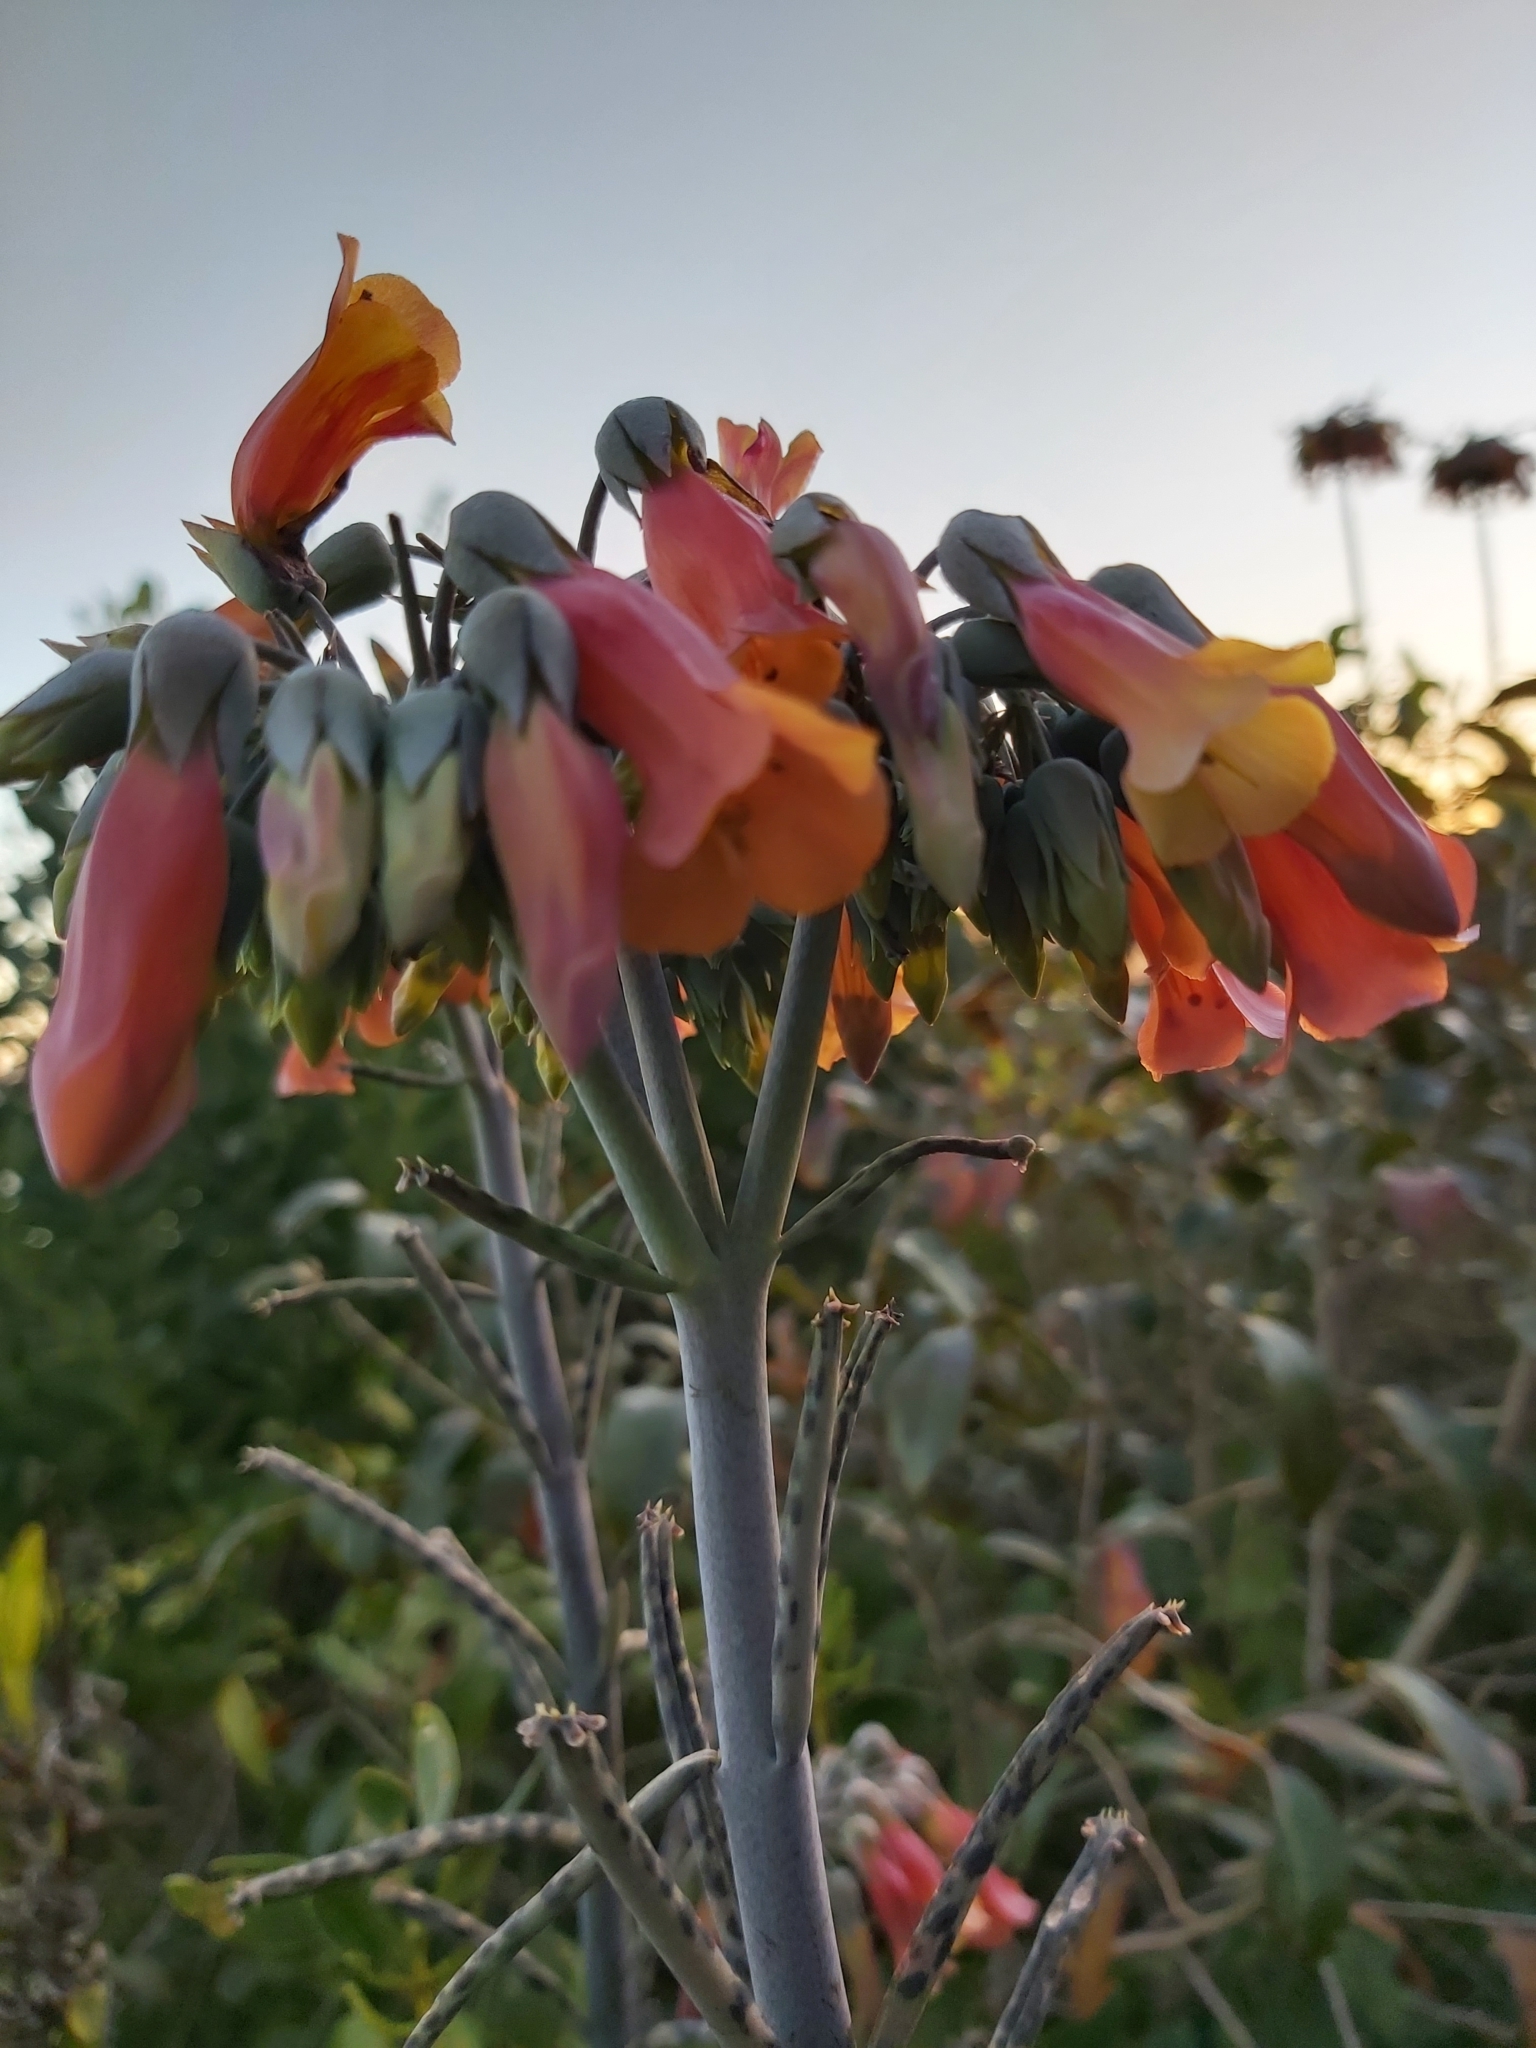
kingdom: Plantae
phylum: Tracheophyta
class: Magnoliopsida
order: Saxifragales
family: Crassulaceae
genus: Kalanchoe
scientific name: Kalanchoe delagoensis
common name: Chandelier plant
